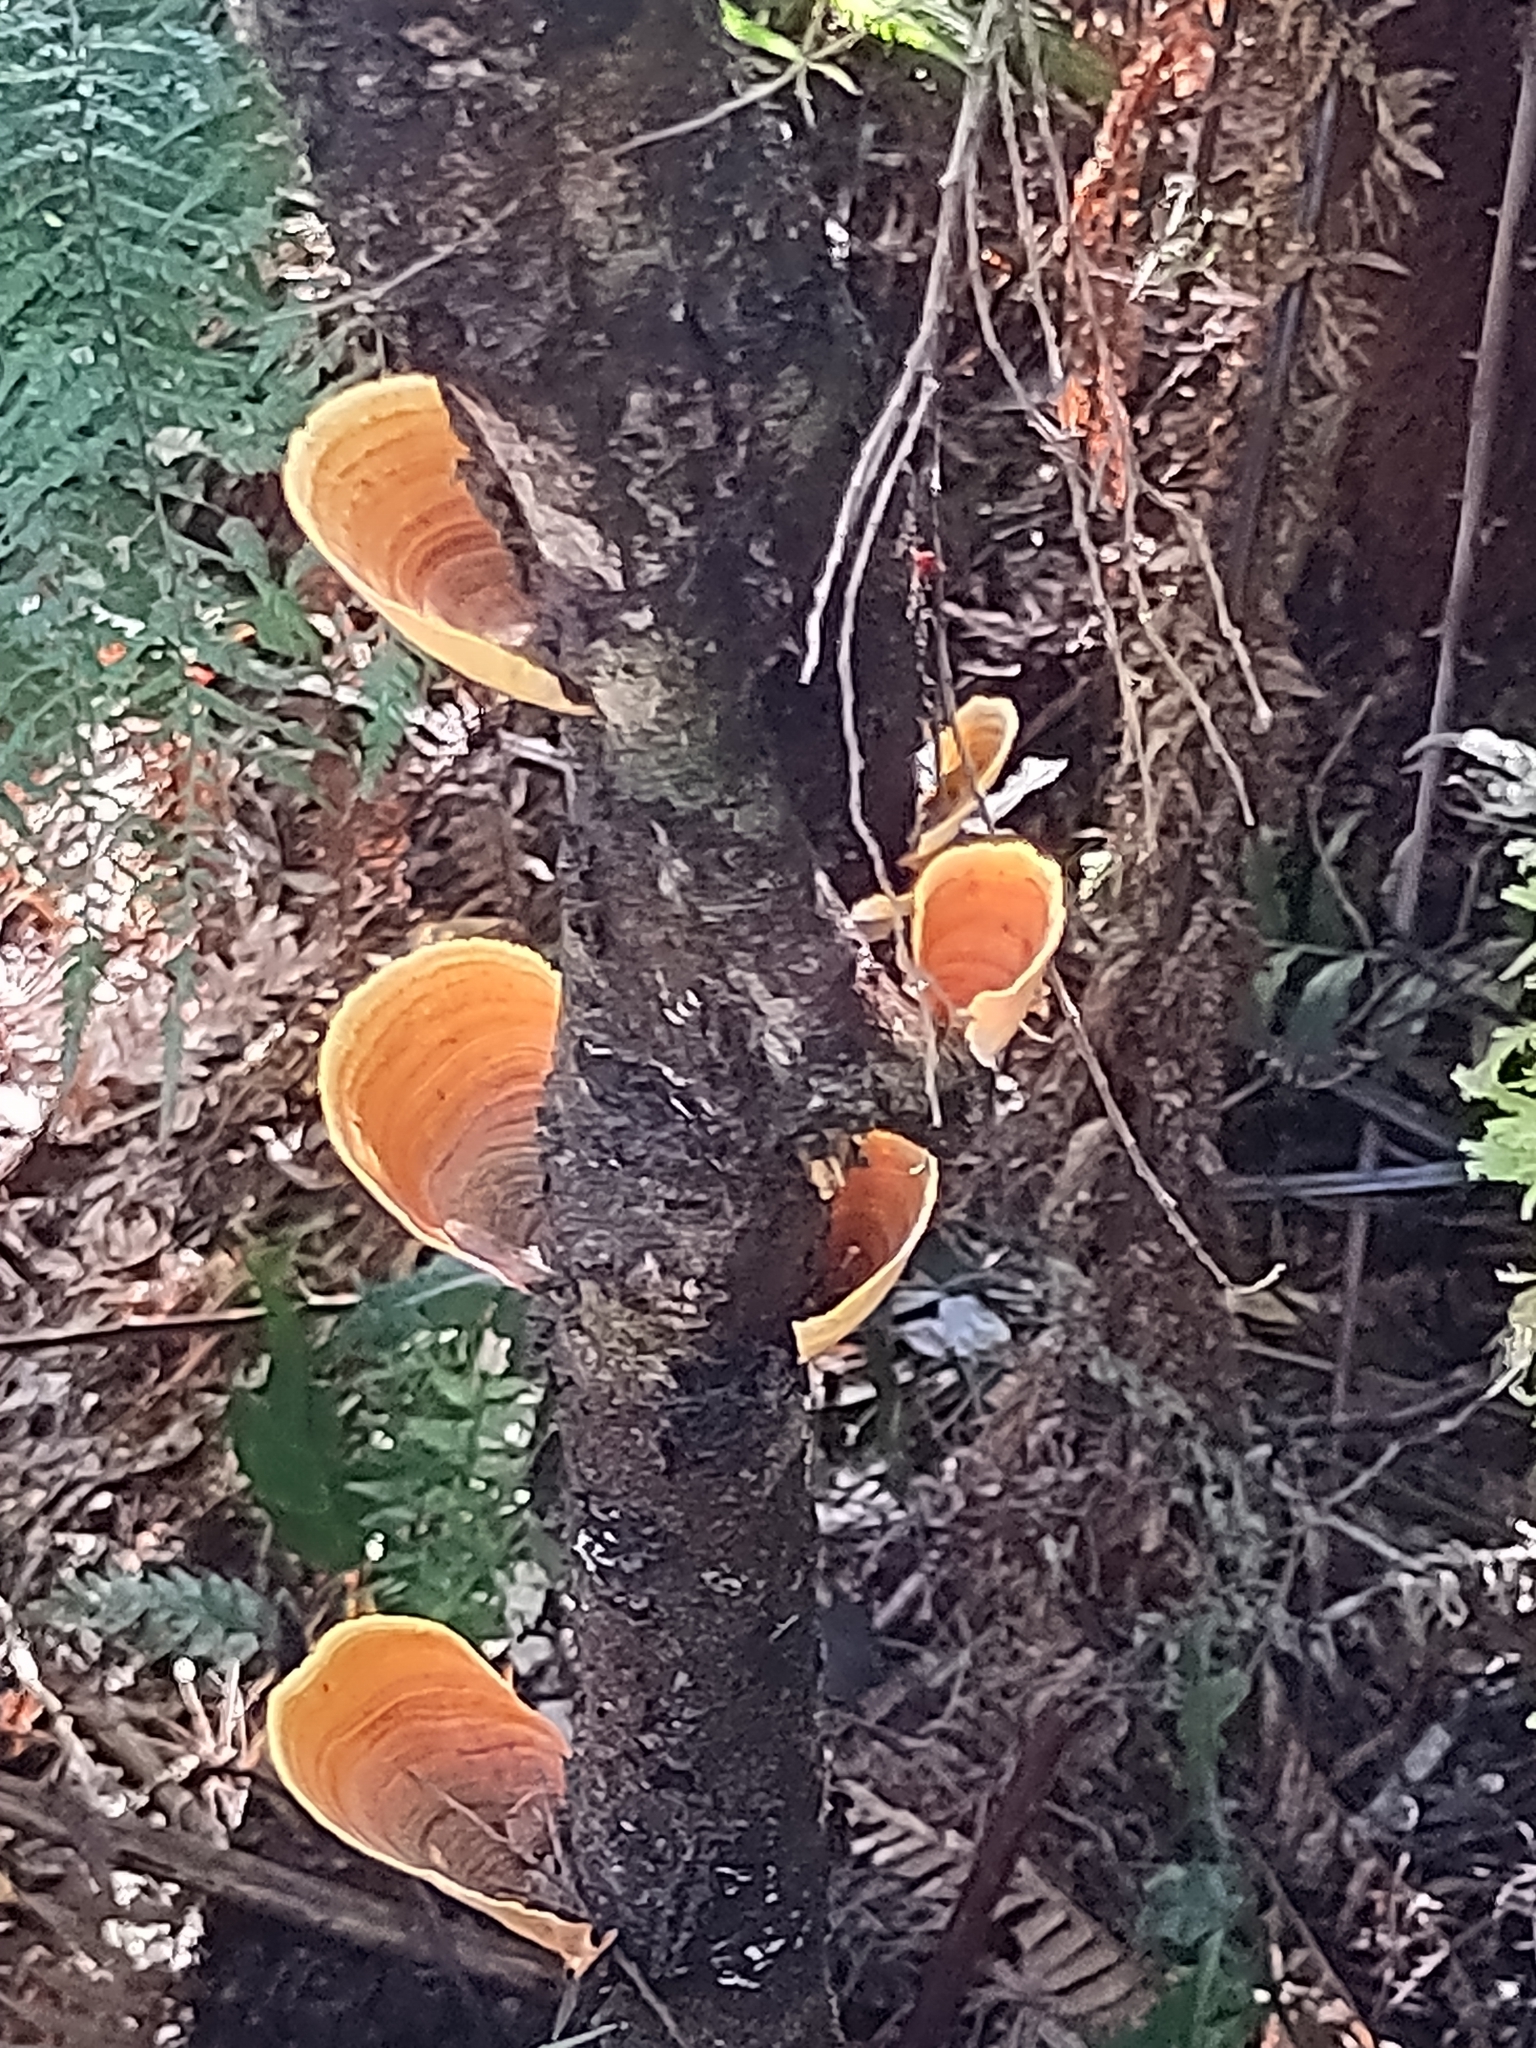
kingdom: Fungi
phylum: Basidiomycota
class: Agaricomycetes
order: Russulales
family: Stereaceae
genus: Stereum
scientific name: Stereum versicolor
